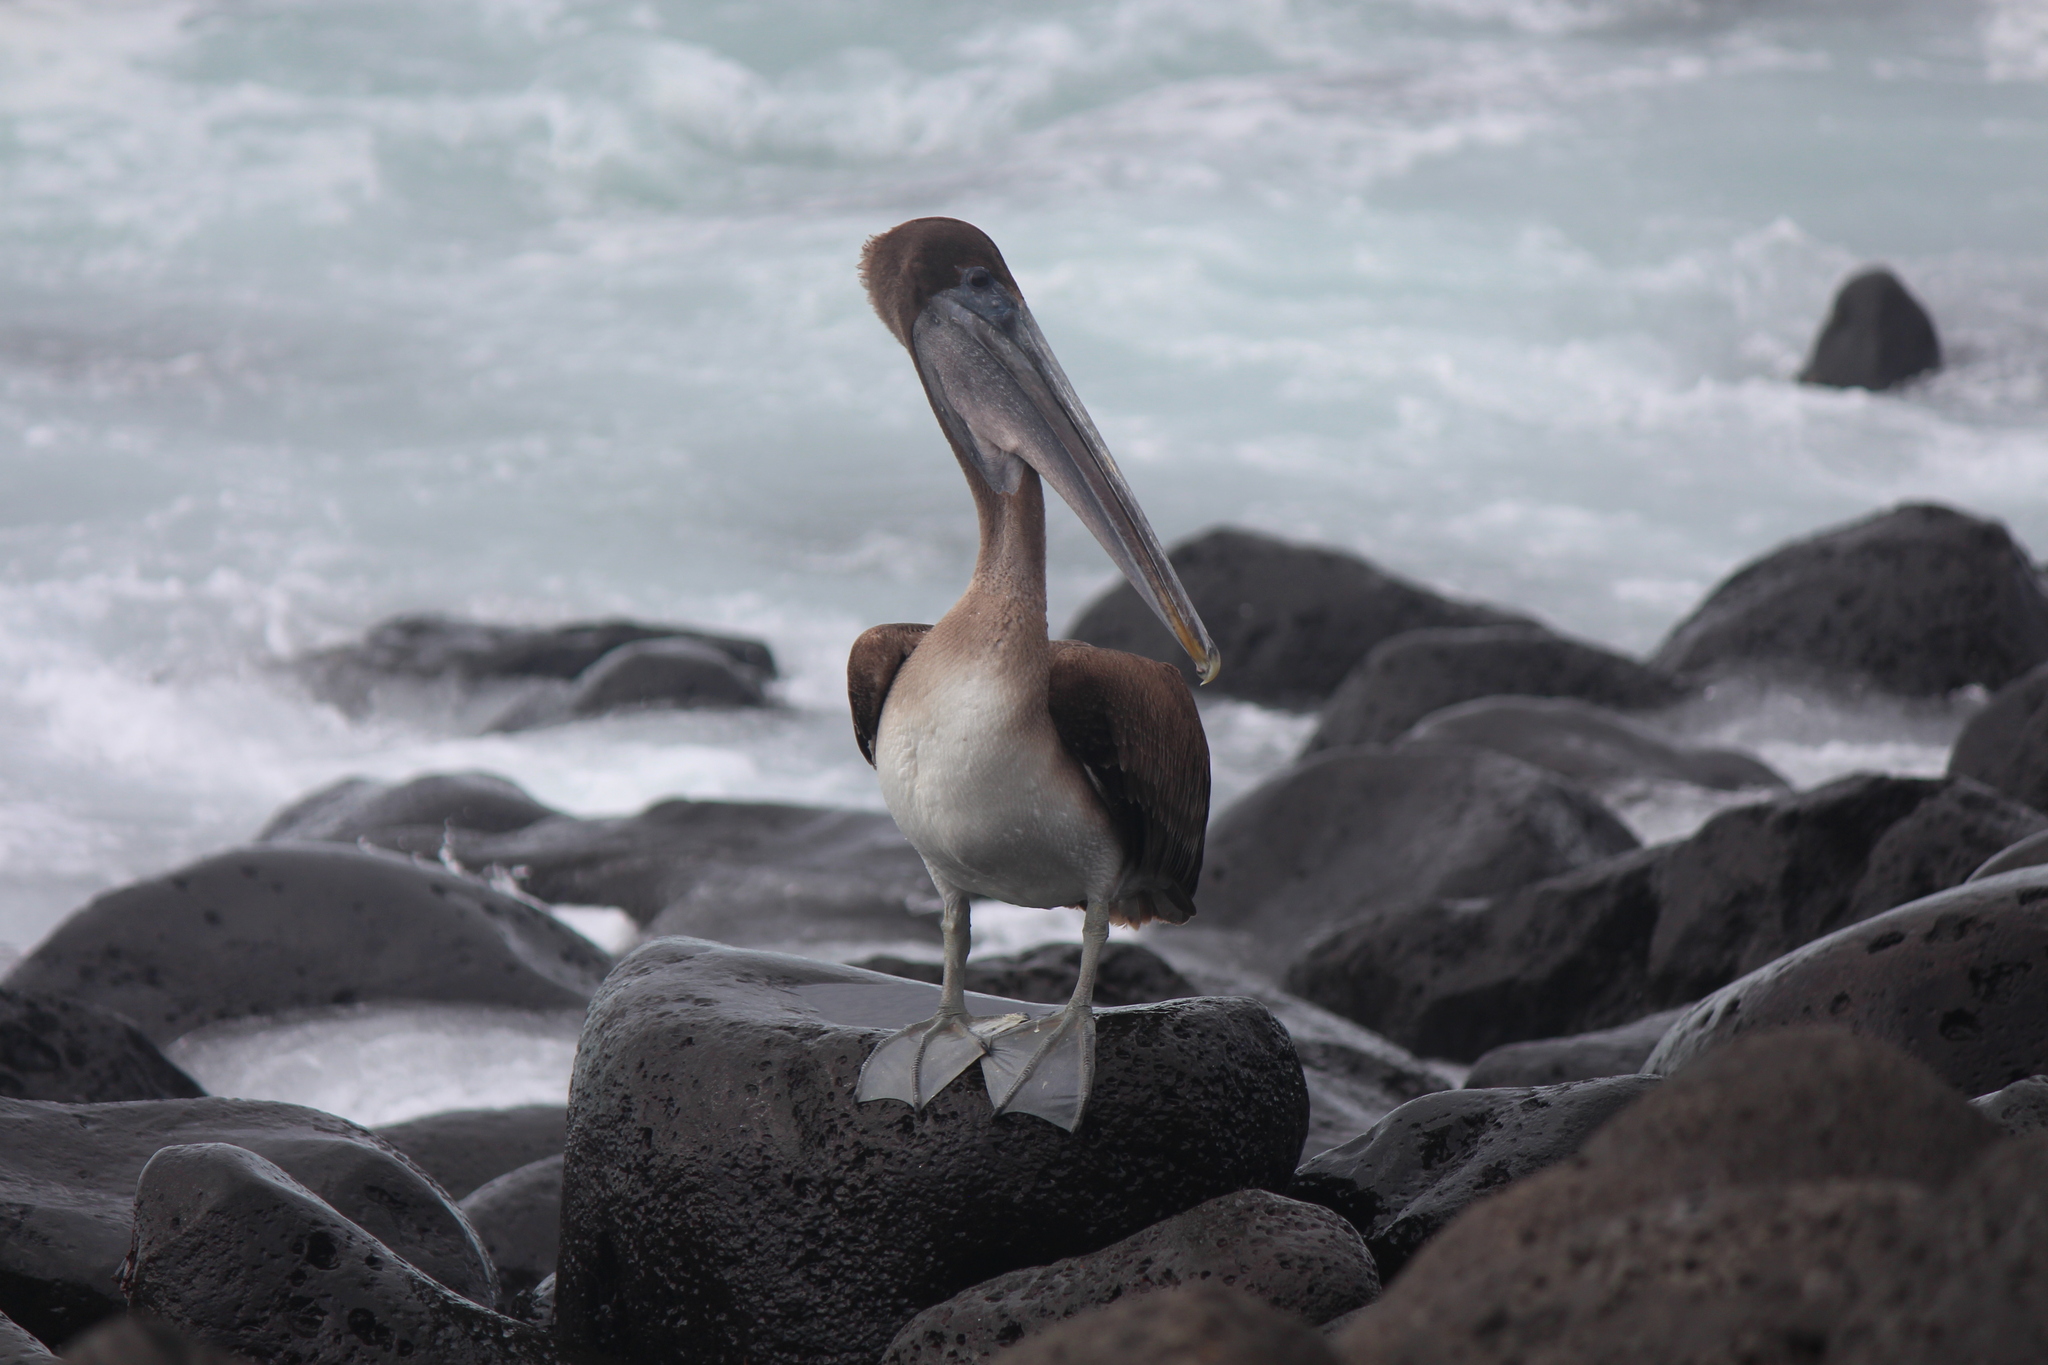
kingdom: Animalia
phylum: Chordata
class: Aves
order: Pelecaniformes
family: Pelecanidae
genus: Pelecanus
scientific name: Pelecanus occidentalis
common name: Brown pelican
